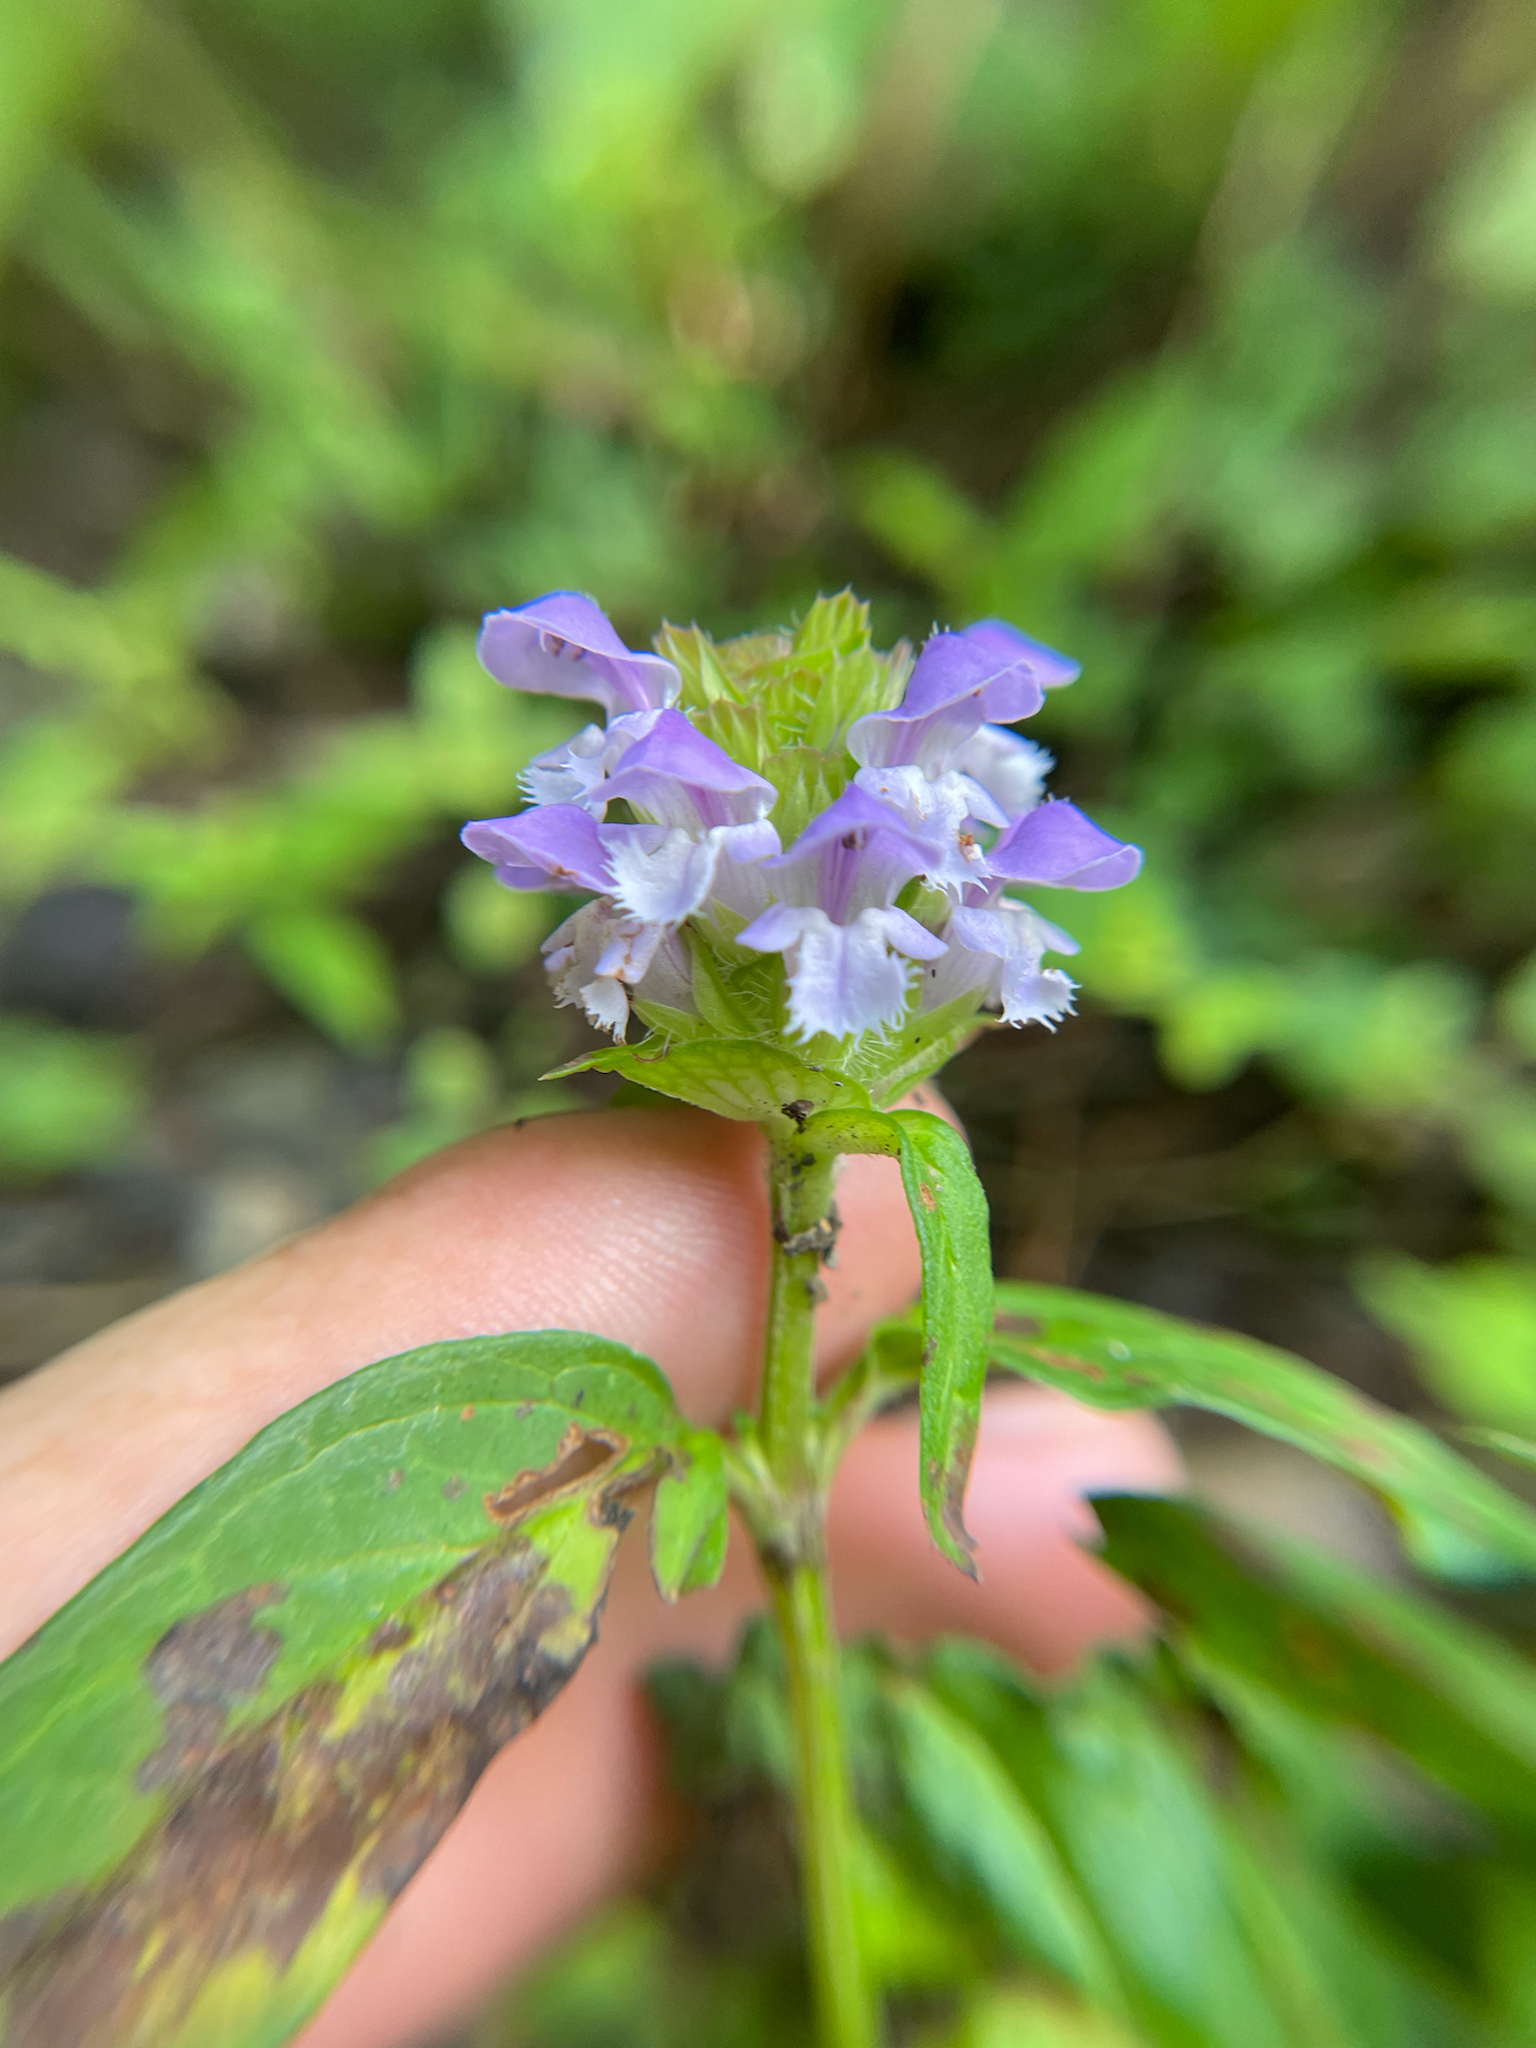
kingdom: Plantae
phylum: Tracheophyta
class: Magnoliopsida
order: Lamiales
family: Lamiaceae
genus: Prunella
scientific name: Prunella vulgaris
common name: Heal-all
